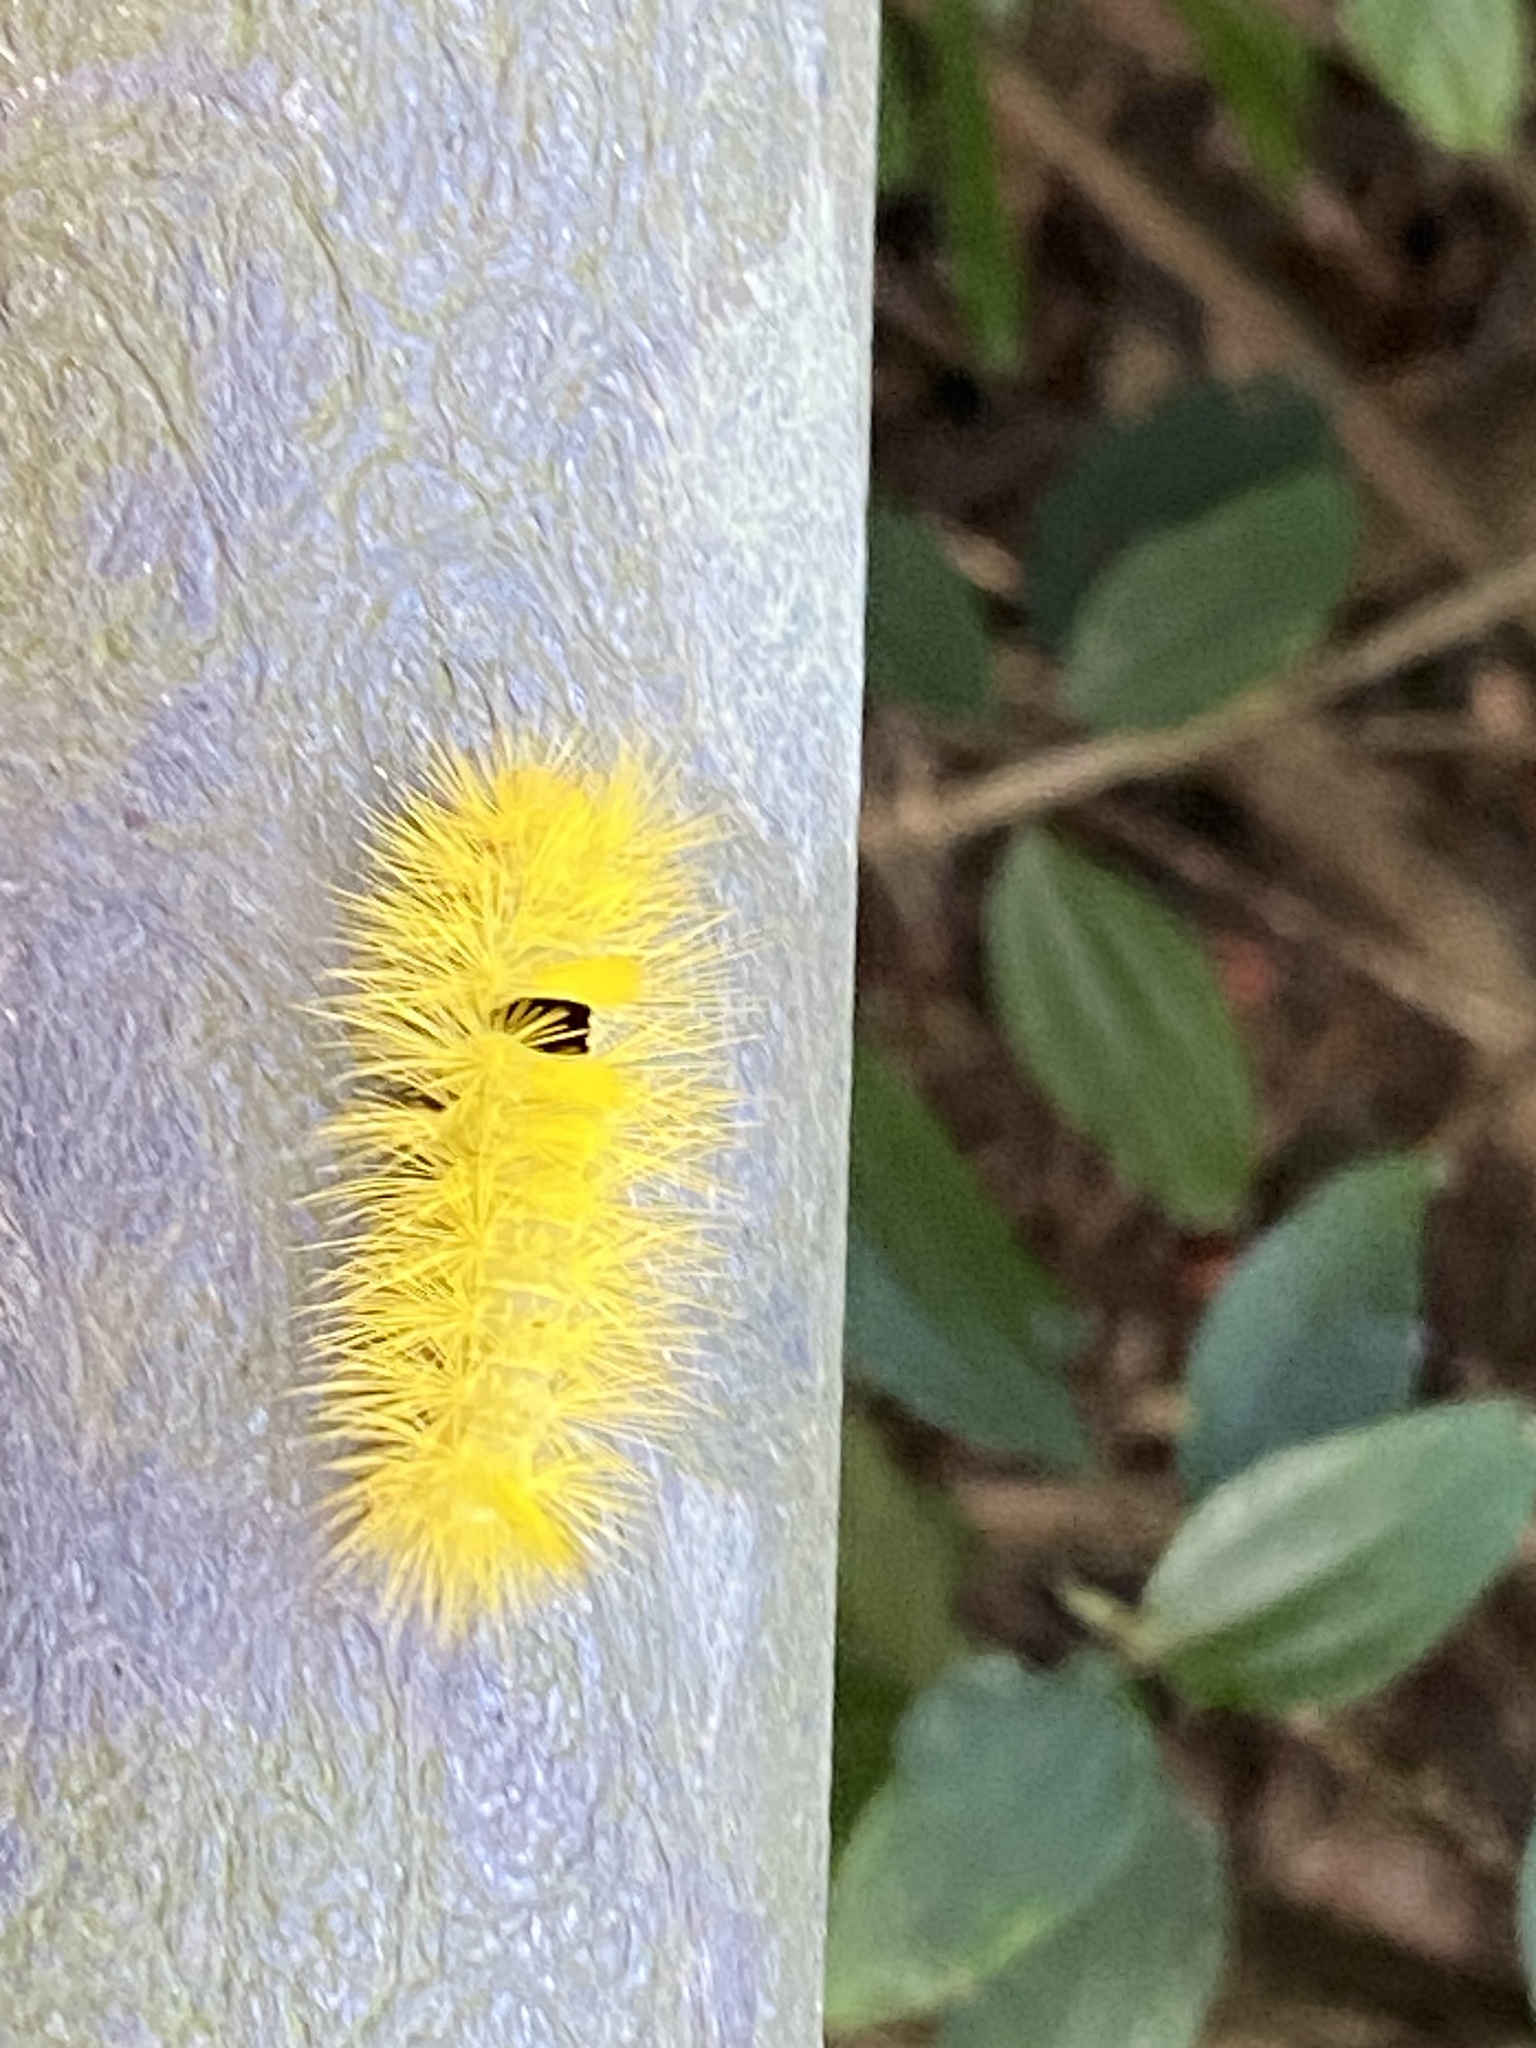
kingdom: Animalia
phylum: Arthropoda
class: Insecta
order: Lepidoptera
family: Erebidae
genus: Calliteara
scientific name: Calliteara horishanella
